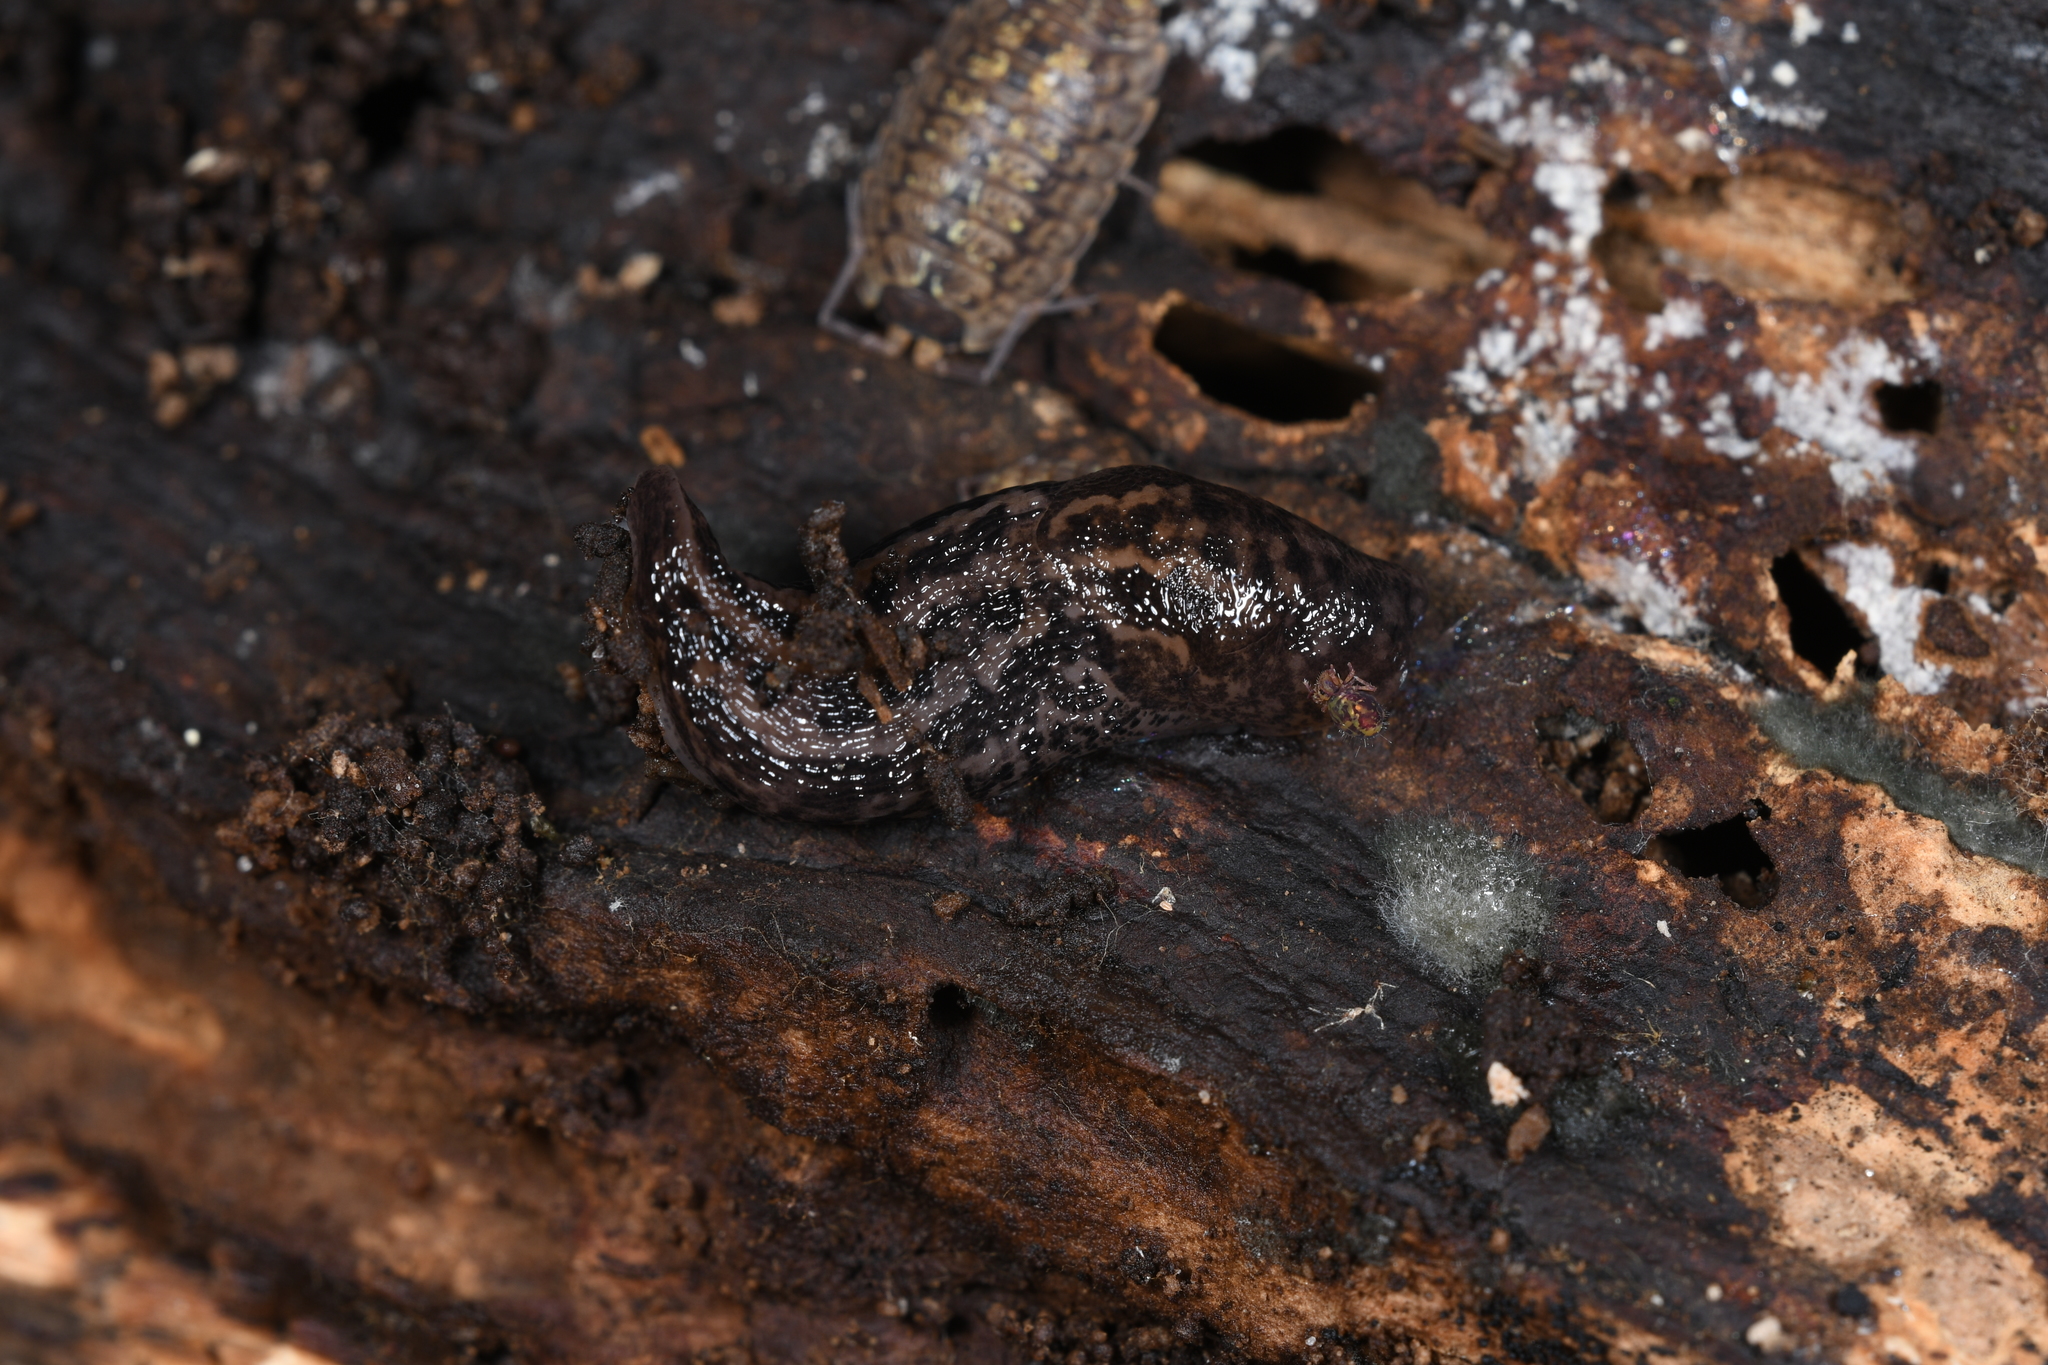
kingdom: Animalia
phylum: Mollusca
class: Gastropoda
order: Stylommatophora
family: Limacidae
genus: Limax
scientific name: Limax maximus
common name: Great grey slug
